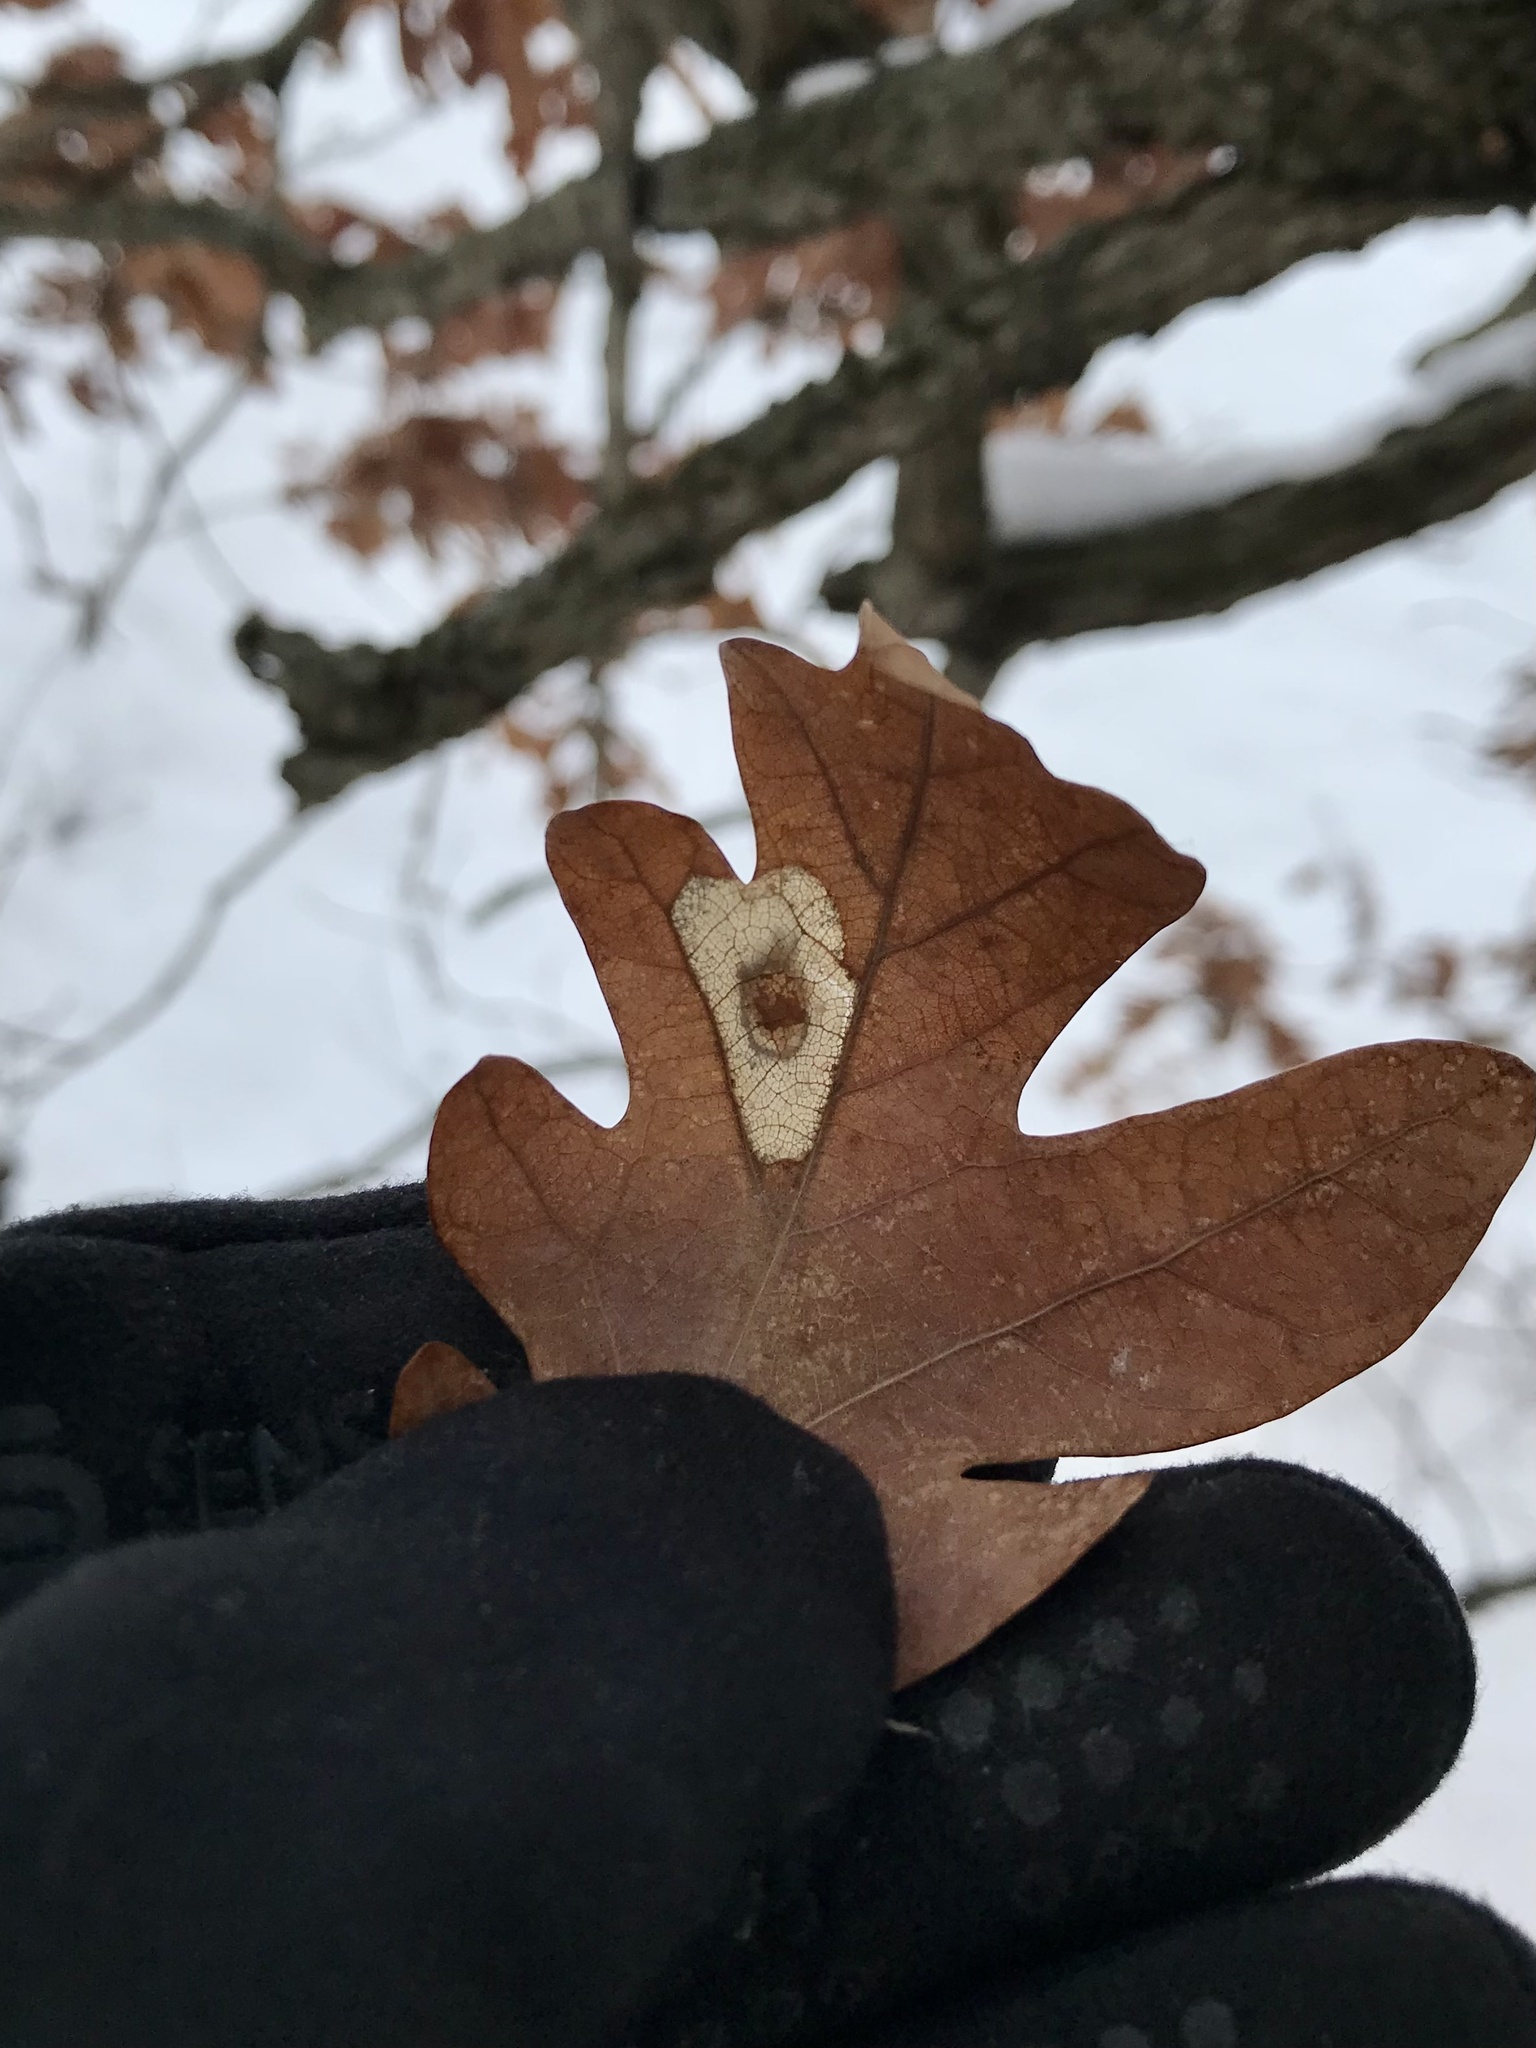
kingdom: Animalia
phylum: Arthropoda
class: Insecta
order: Lepidoptera
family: Gracillariidae
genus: Phyllonorycter
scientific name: Phyllonorycter basistrigella
